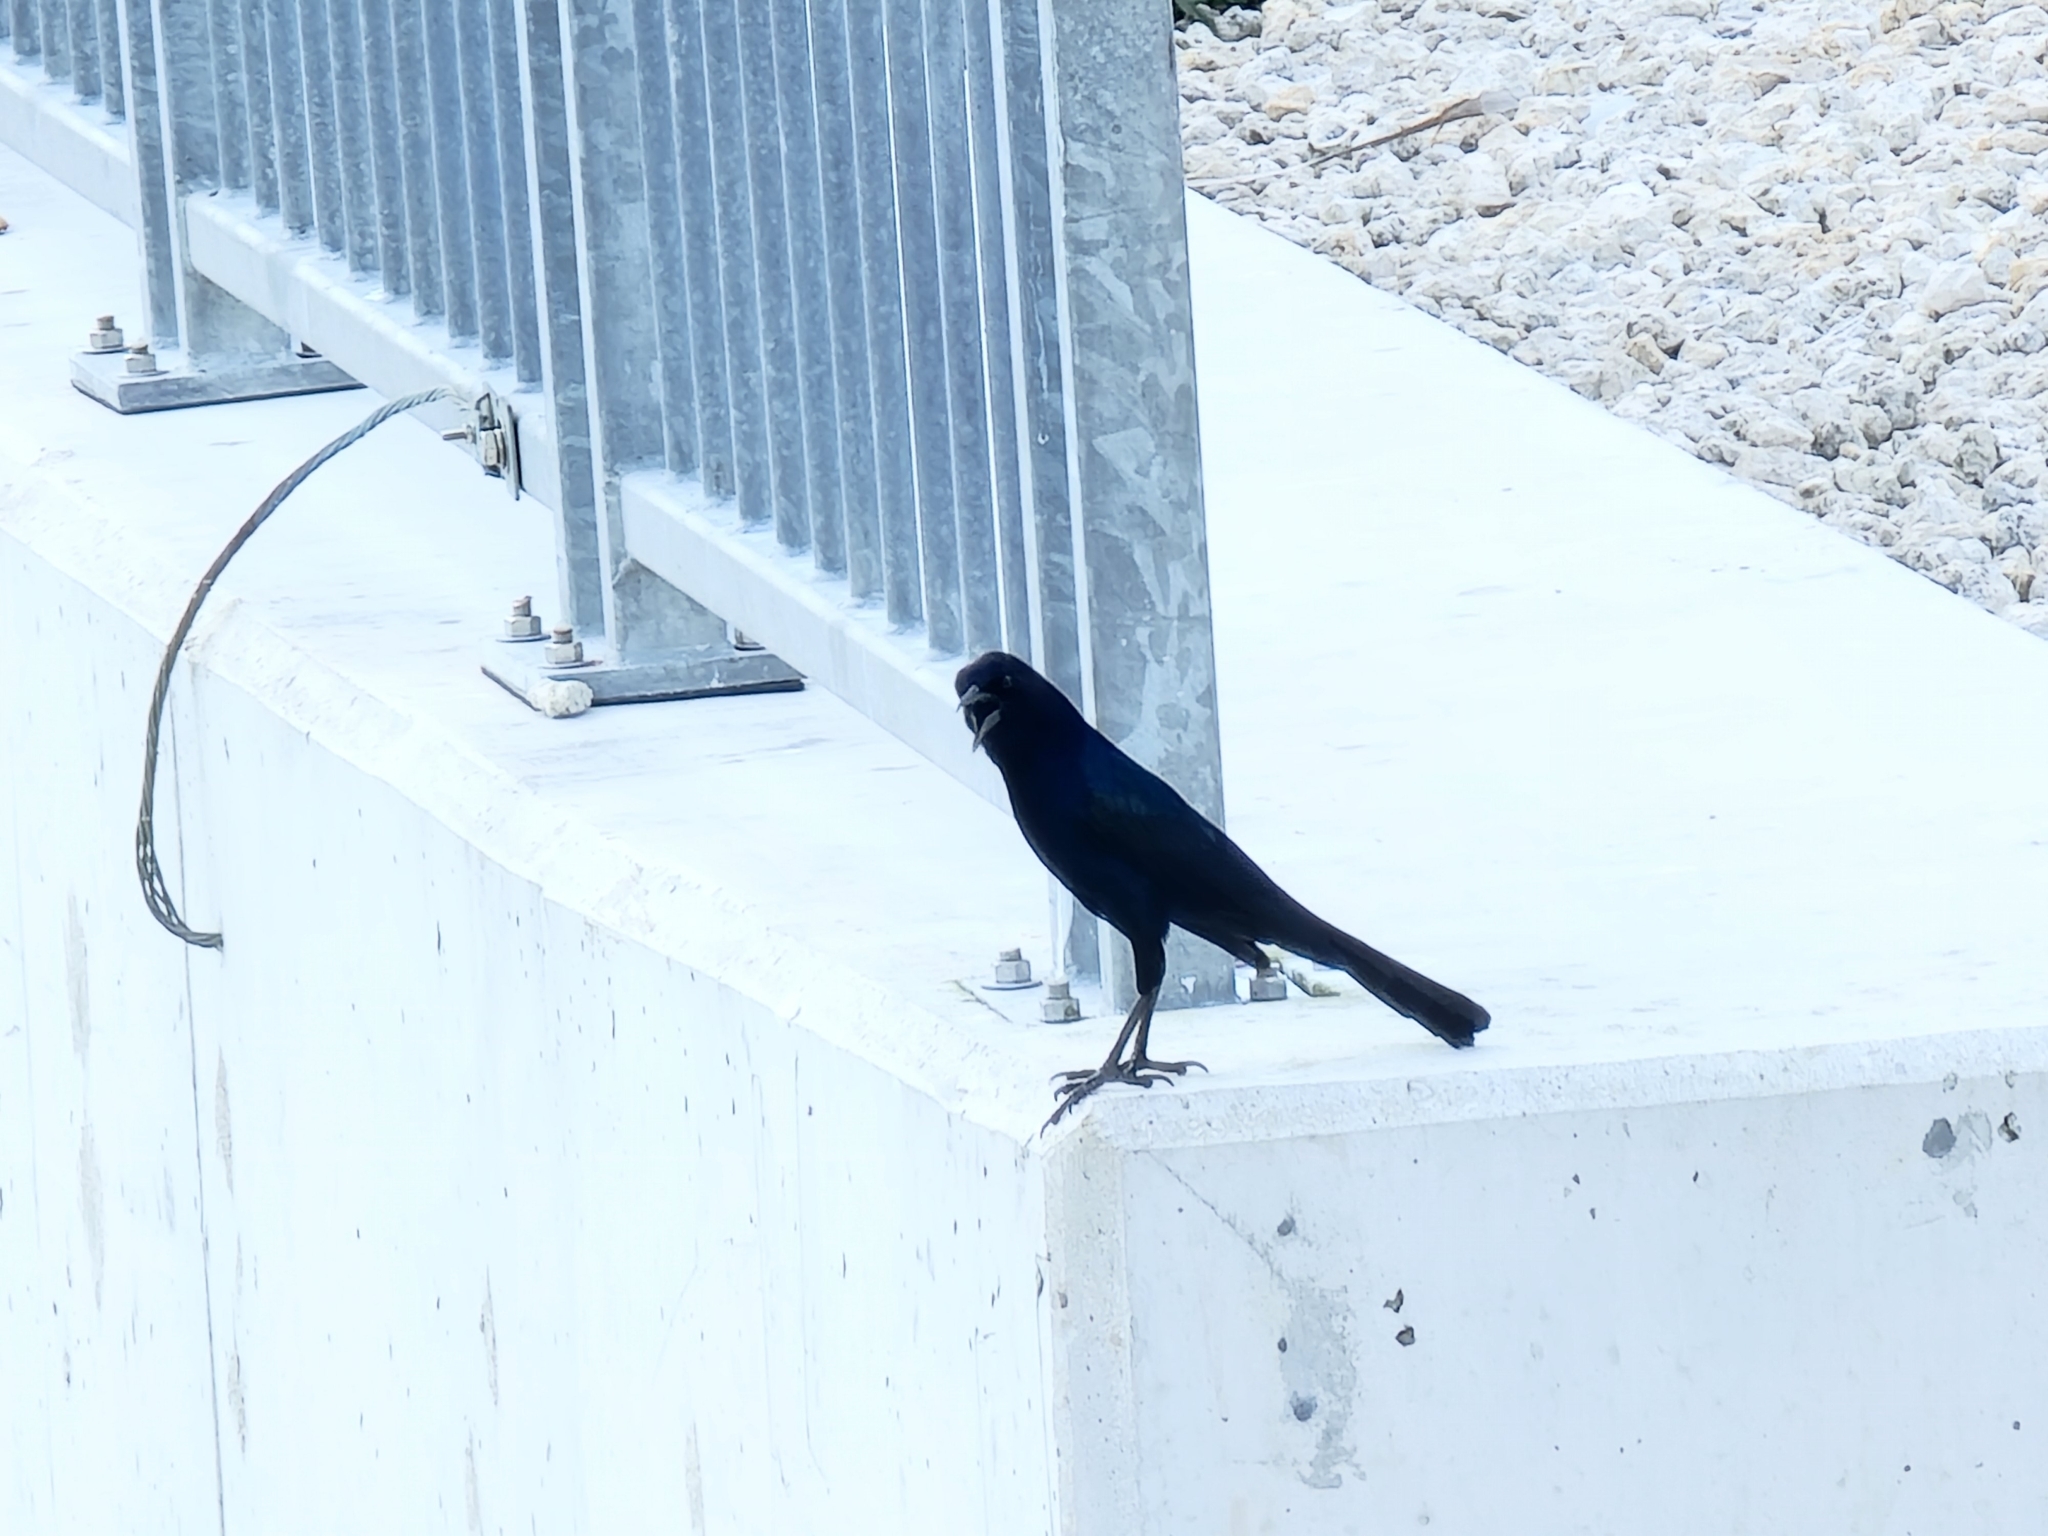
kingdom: Animalia
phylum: Chordata
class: Aves
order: Passeriformes
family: Icteridae
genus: Quiscalus
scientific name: Quiscalus major
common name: Boat-tailed grackle
